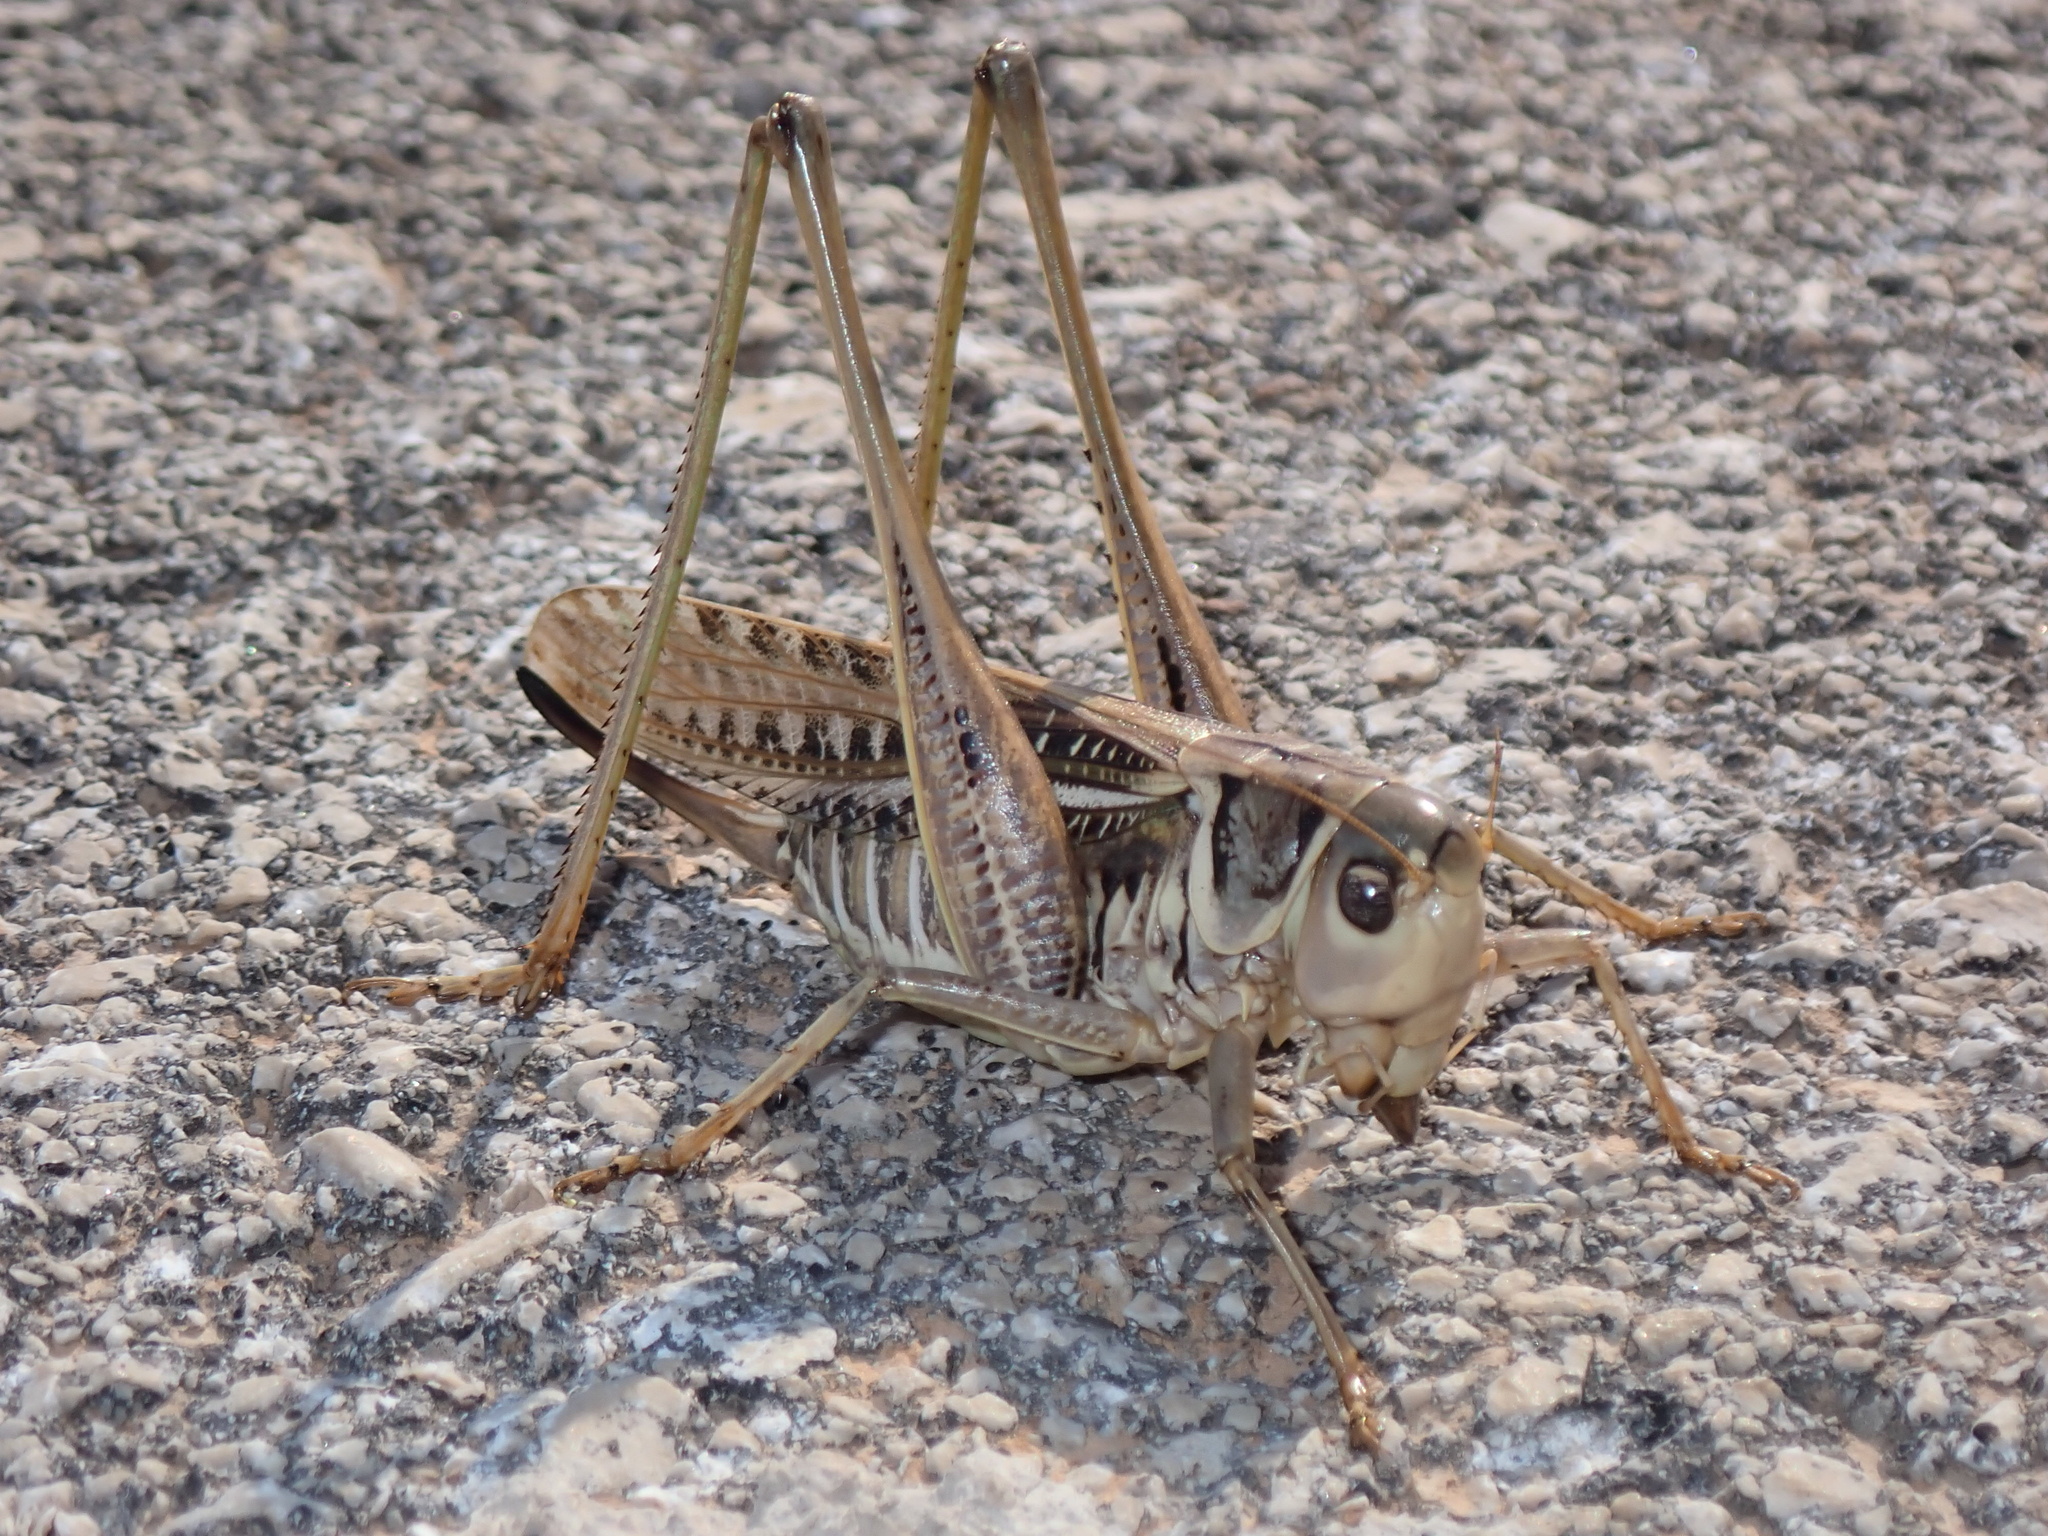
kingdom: Animalia
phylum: Arthropoda
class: Insecta
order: Orthoptera
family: Tettigoniidae
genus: Decticus
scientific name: Decticus albifrons
